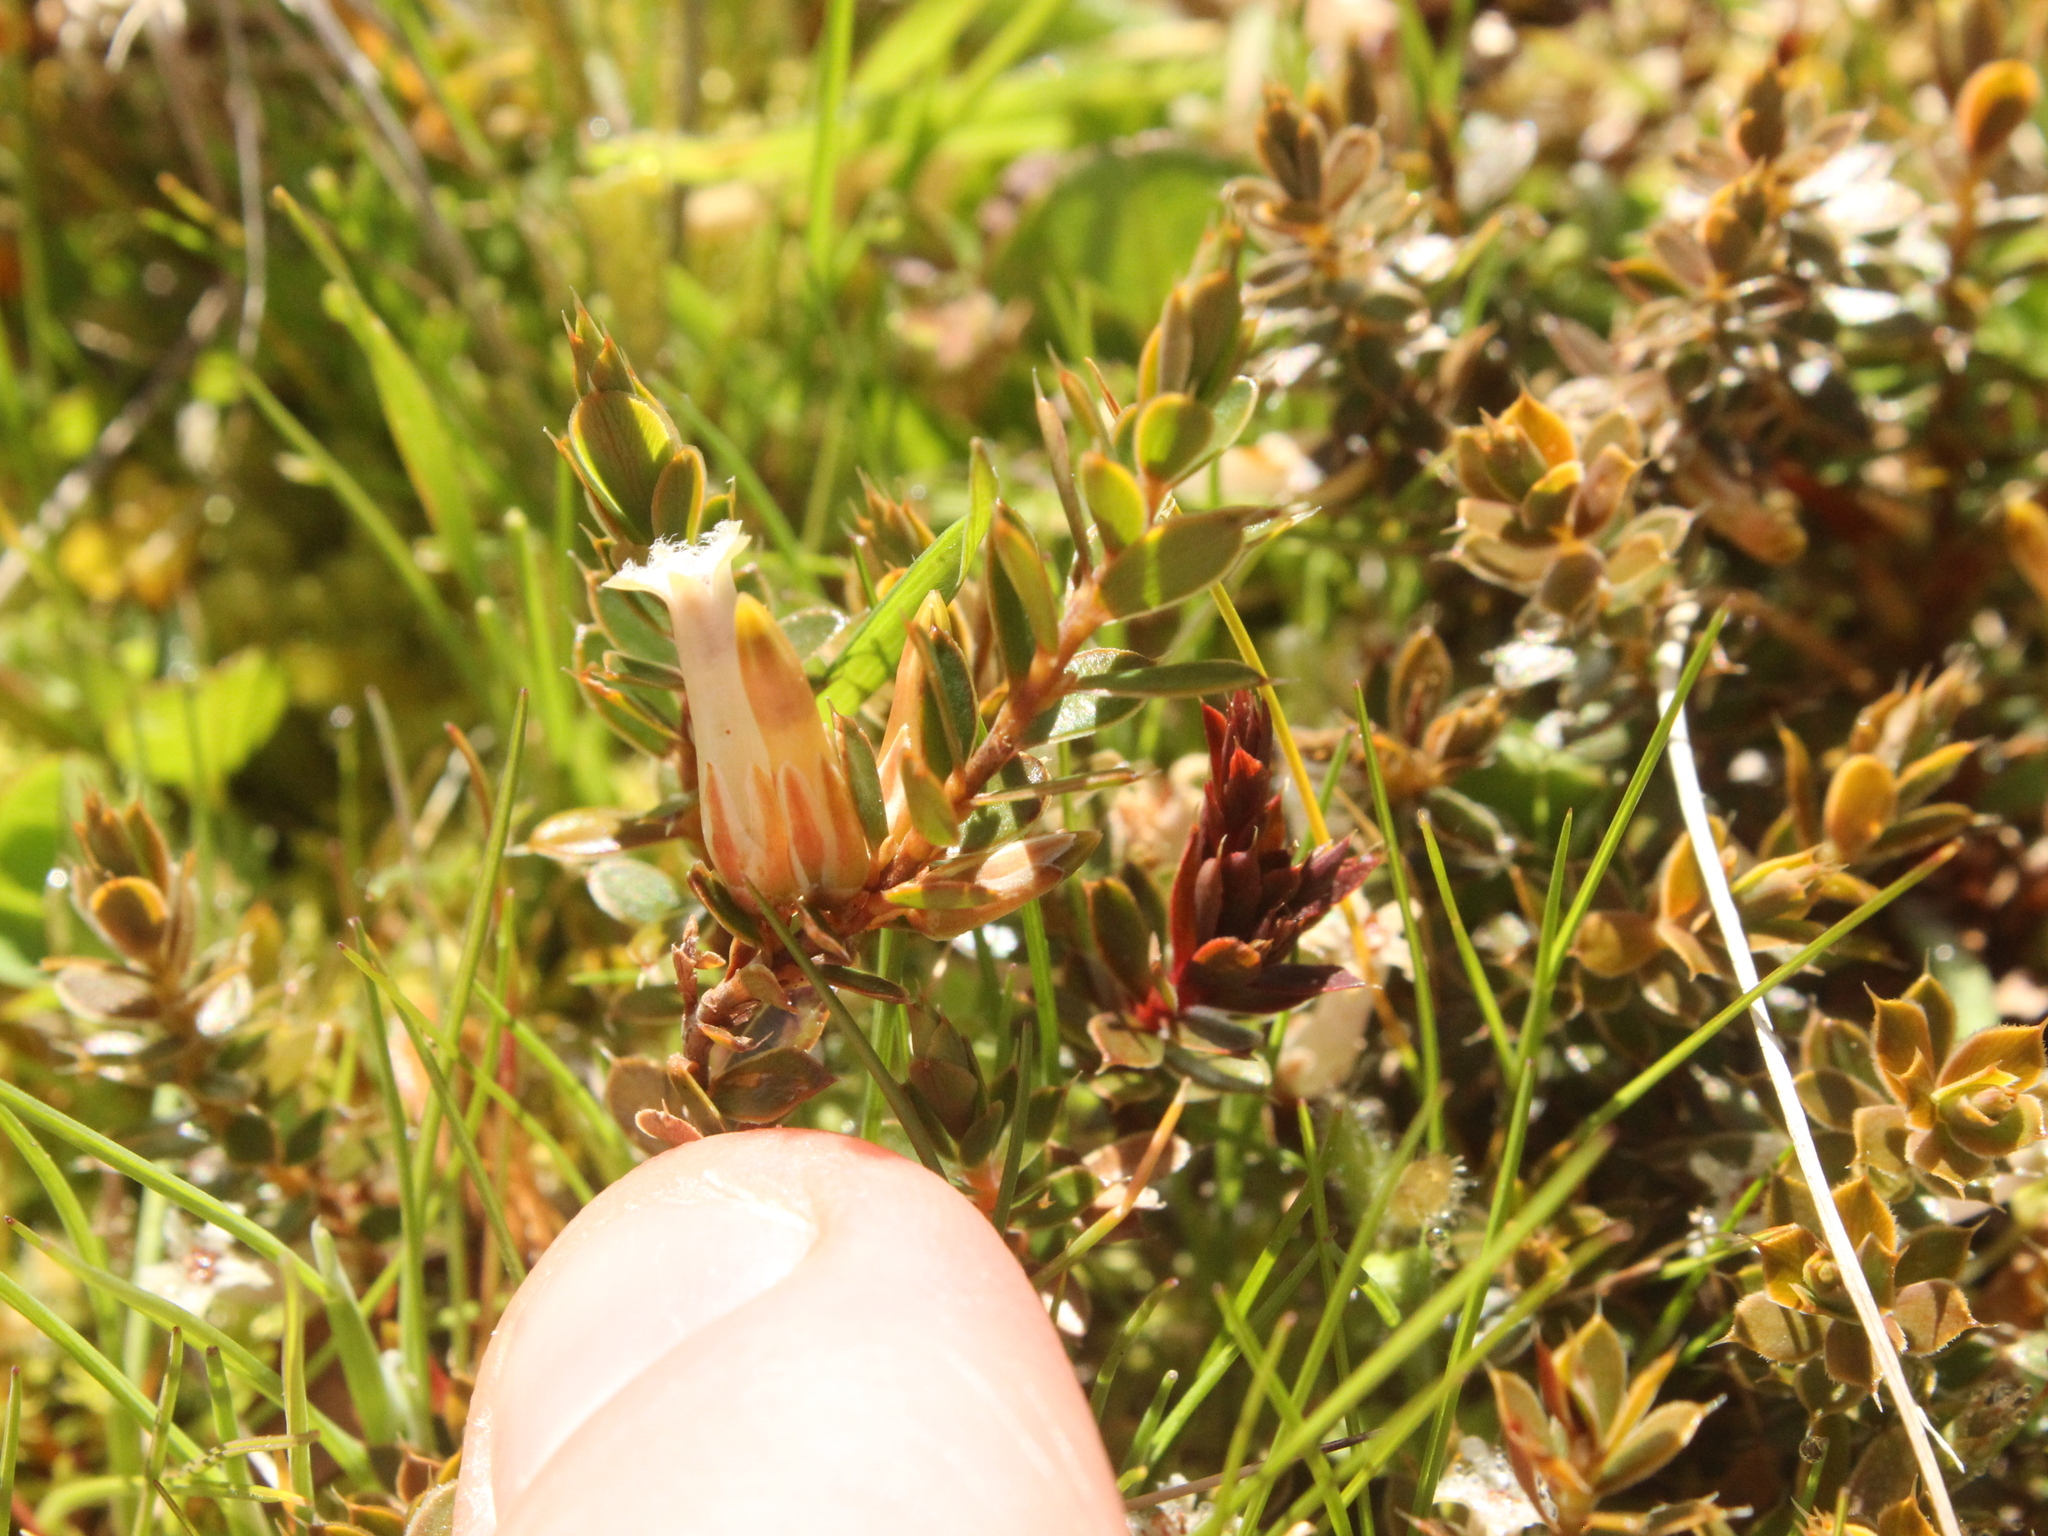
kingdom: Plantae
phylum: Tracheophyta
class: Magnoliopsida
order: Ericales
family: Ericaceae
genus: Styphelia
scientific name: Styphelia nesophila
